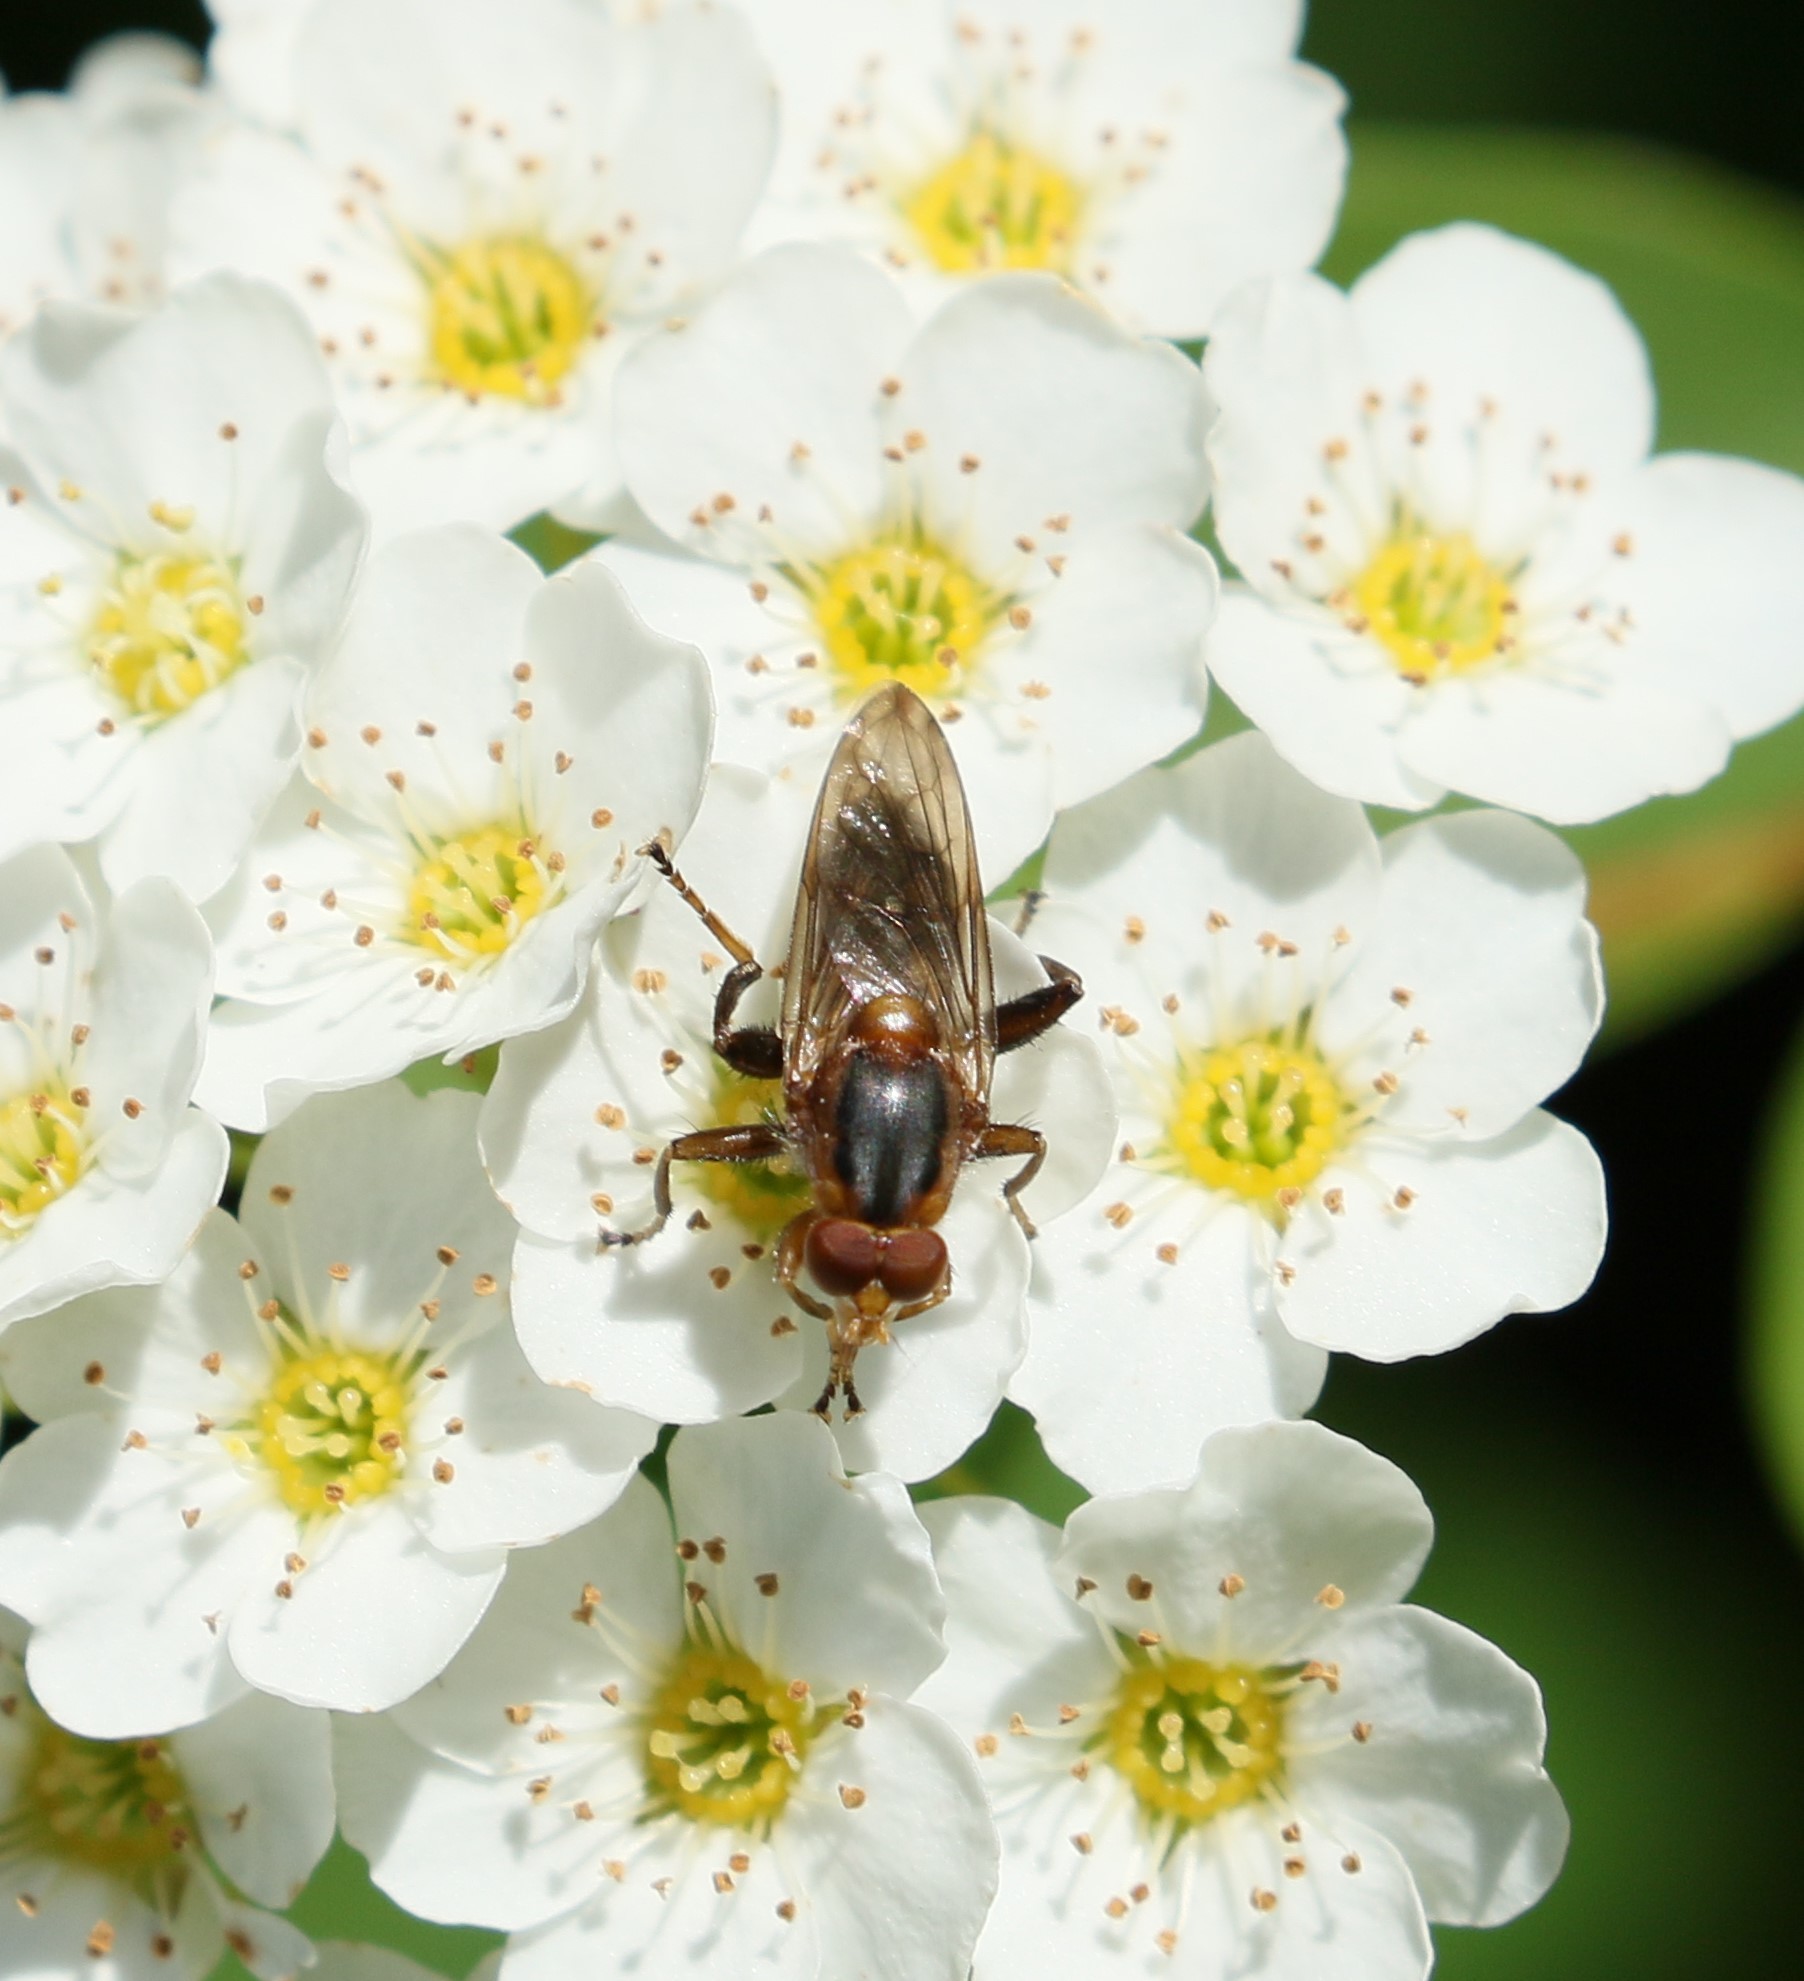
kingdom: Animalia
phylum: Arthropoda
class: Insecta
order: Diptera
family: Syrphidae
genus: Hammerschmidtia
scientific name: Hammerschmidtia rufa
